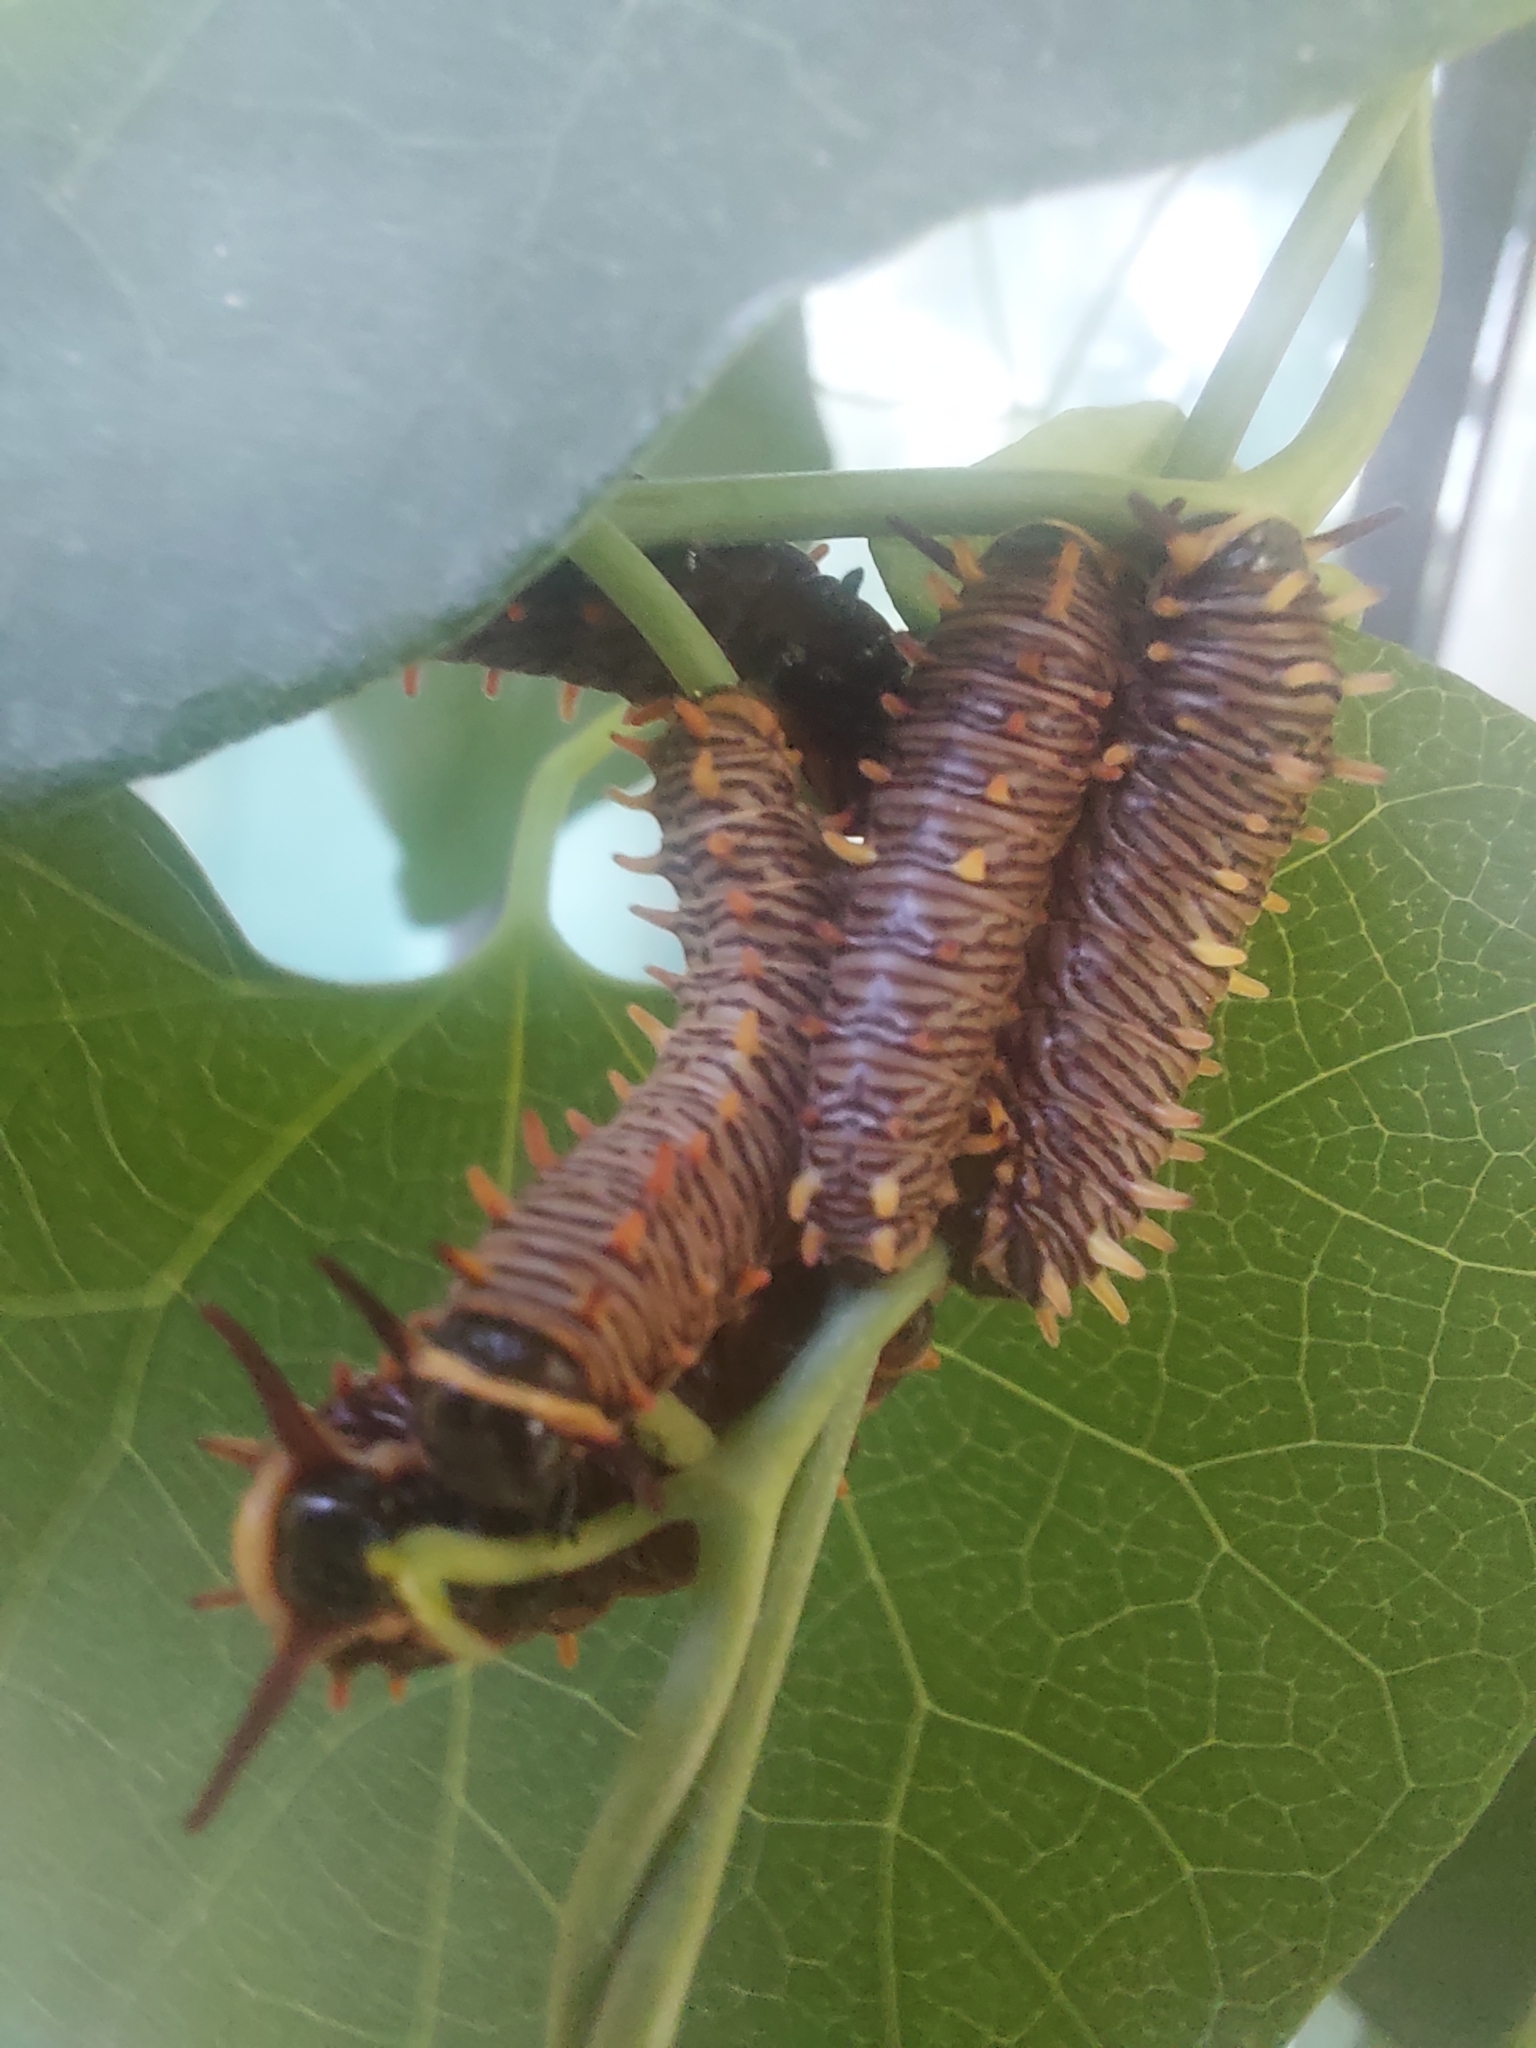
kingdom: Animalia
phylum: Arthropoda
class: Insecta
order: Lepidoptera
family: Papilionidae
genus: Battus
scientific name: Battus polydamas
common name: Polydamas swallowtail
